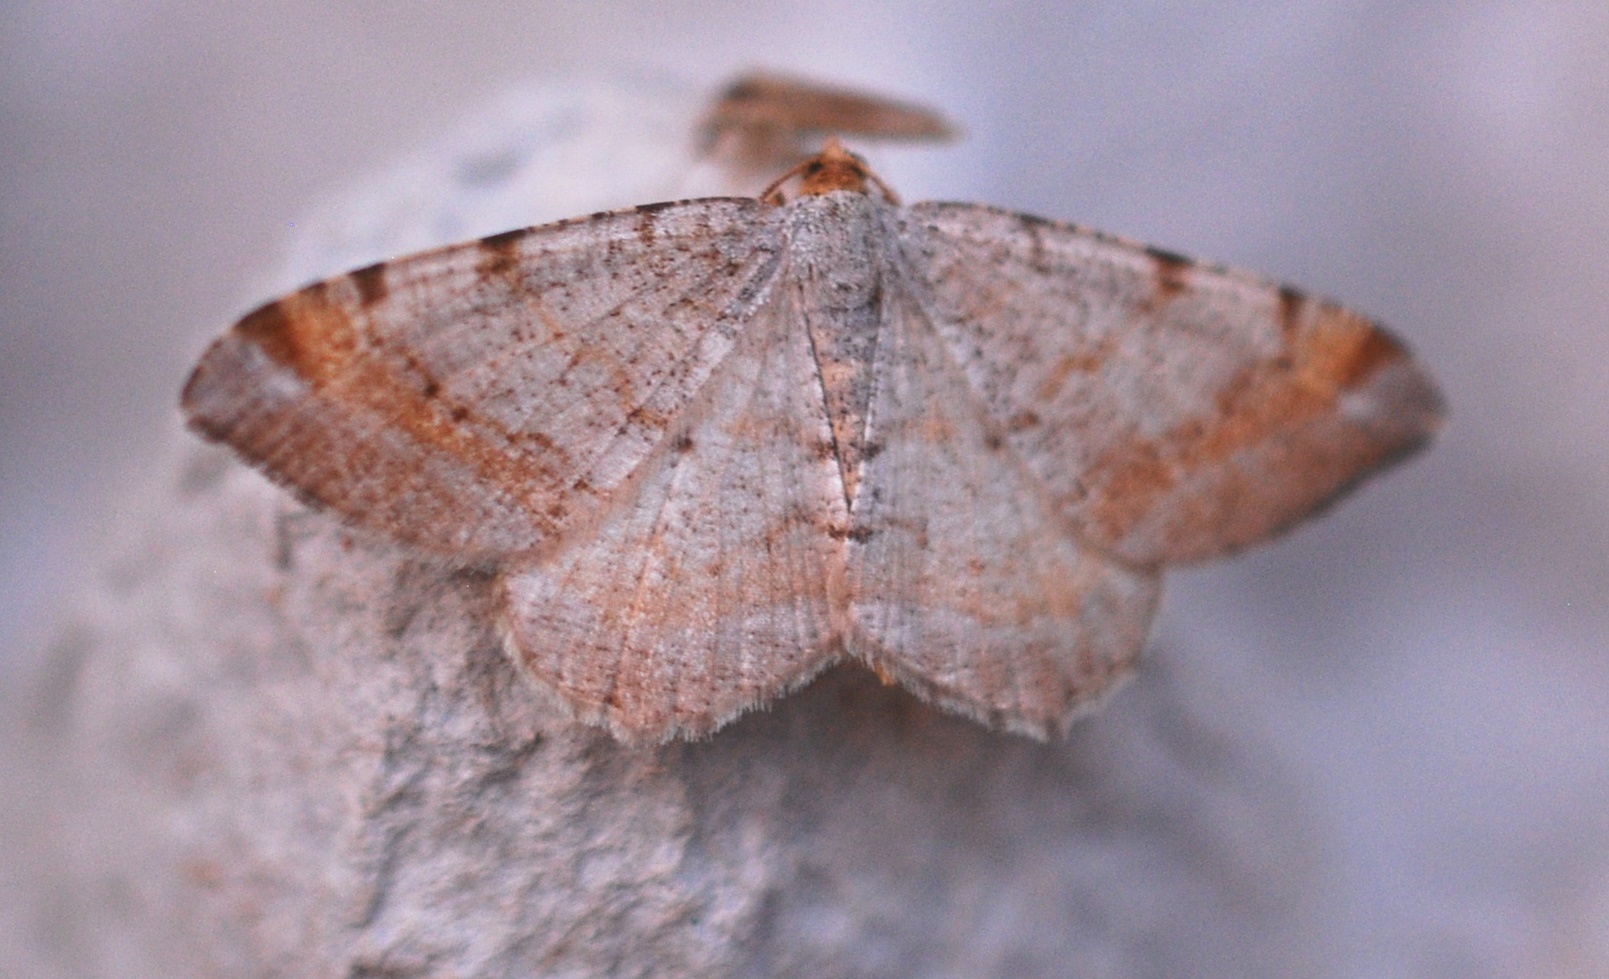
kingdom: Animalia
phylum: Arthropoda
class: Insecta
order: Lepidoptera
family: Geometridae
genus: Macaria
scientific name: Macaria liturata
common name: Tawny-barred angle
